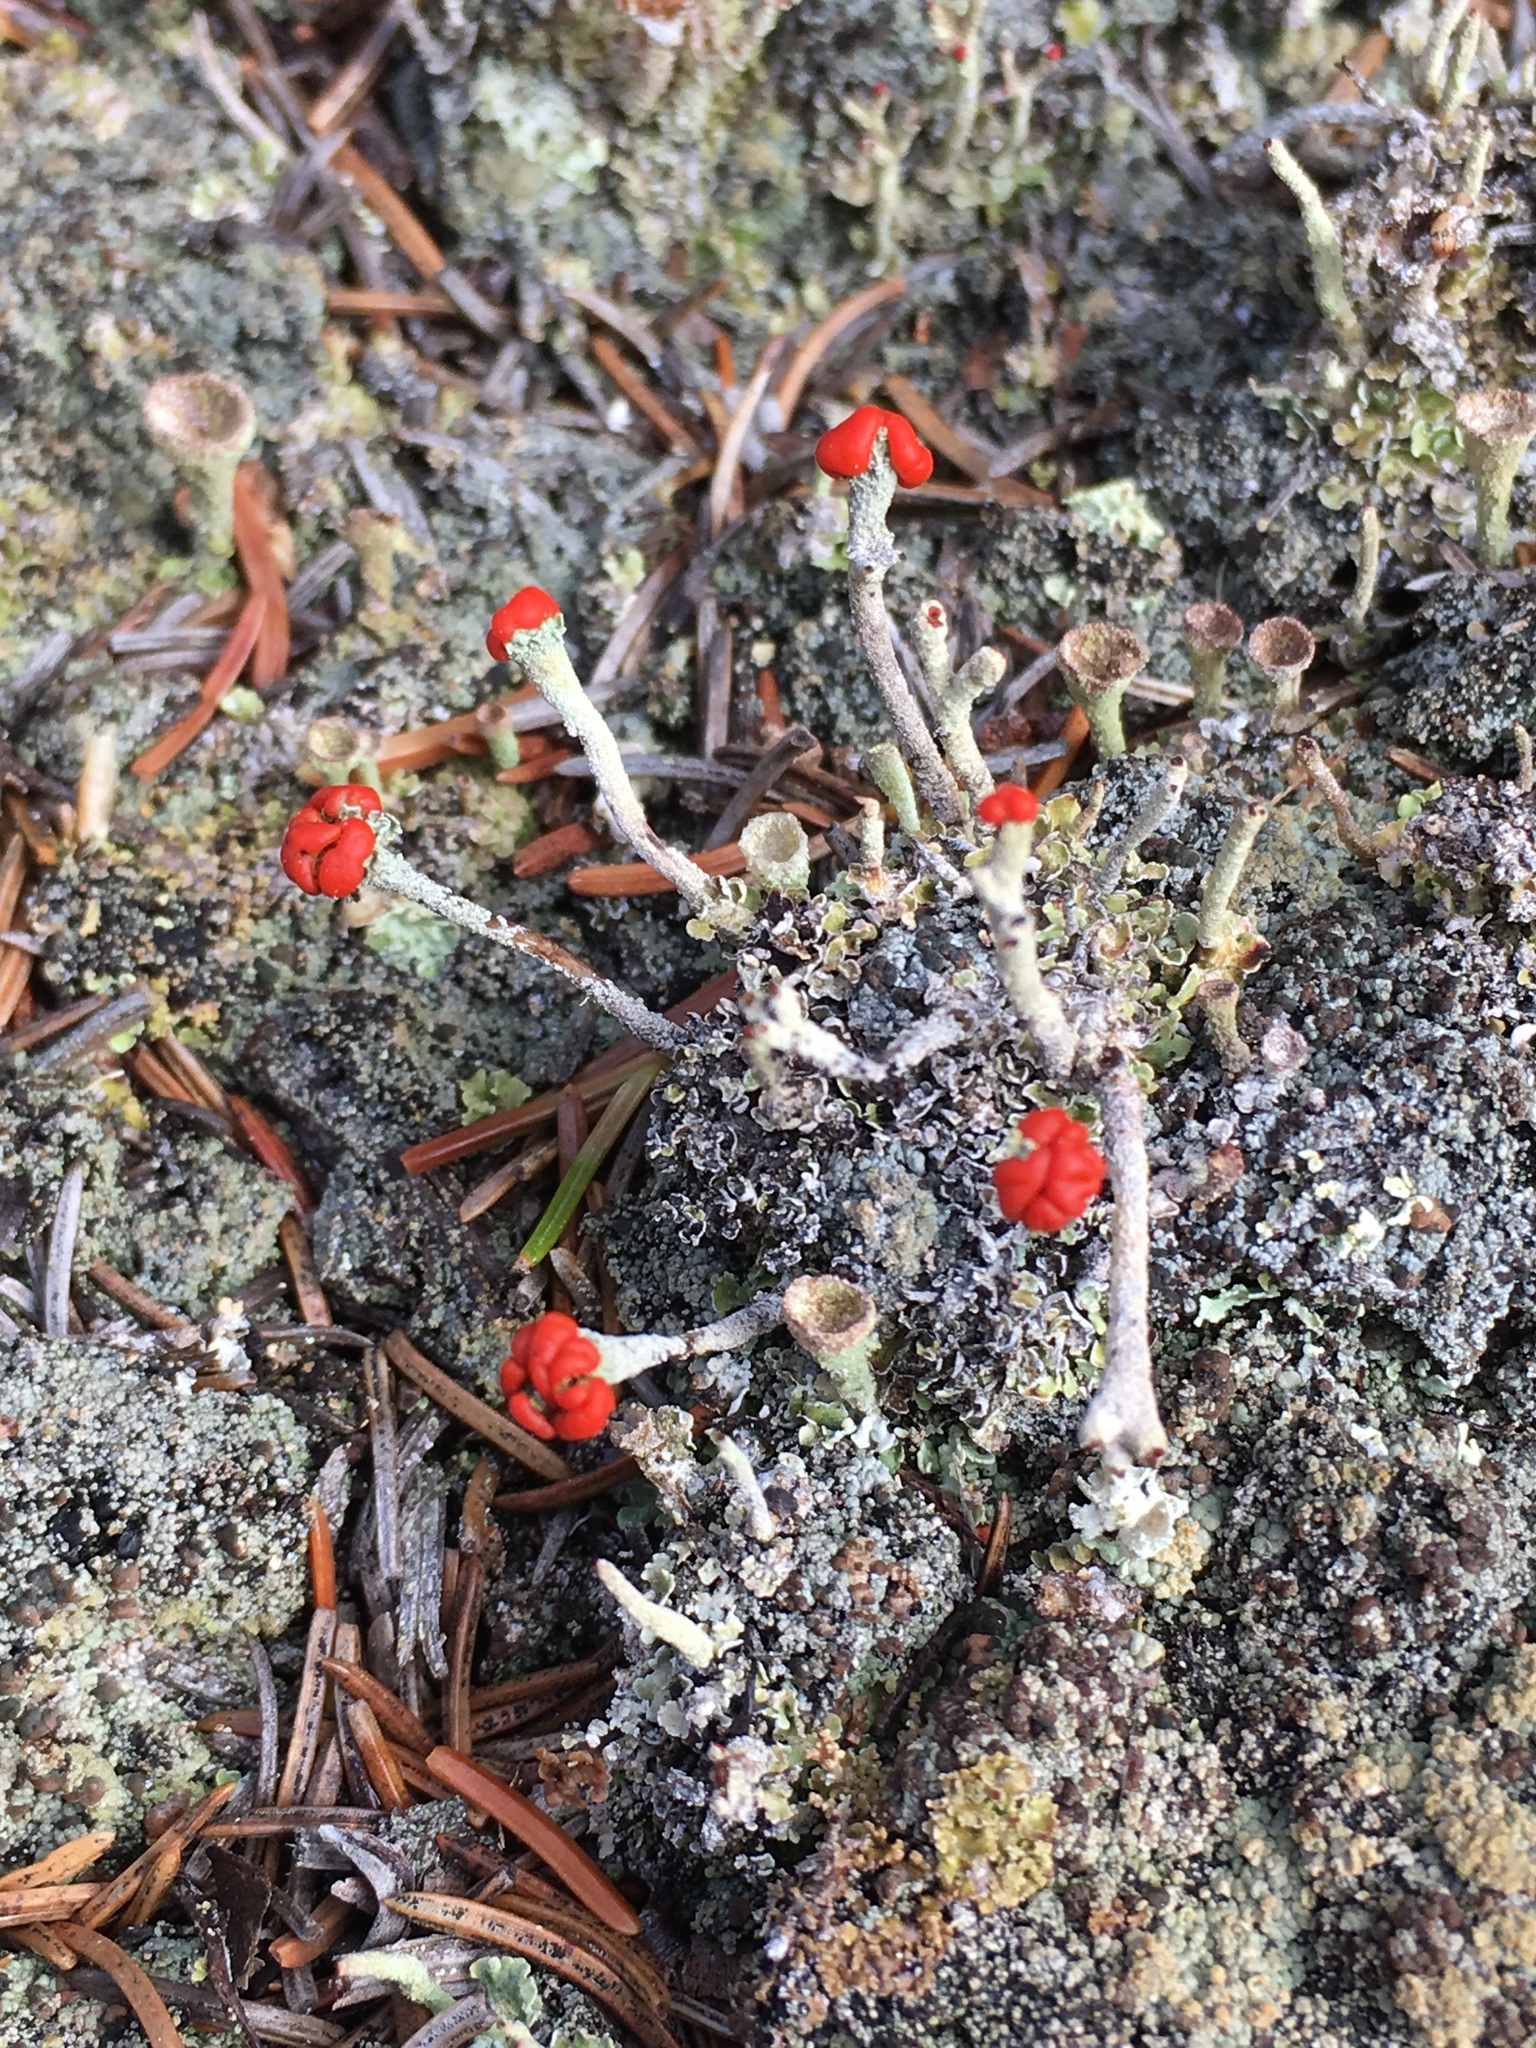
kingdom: Fungi
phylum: Ascomycota
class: Lecanoromycetes
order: Lecanorales
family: Cladoniaceae
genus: Cladonia
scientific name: Cladonia cristatella
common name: British soldier lichen
